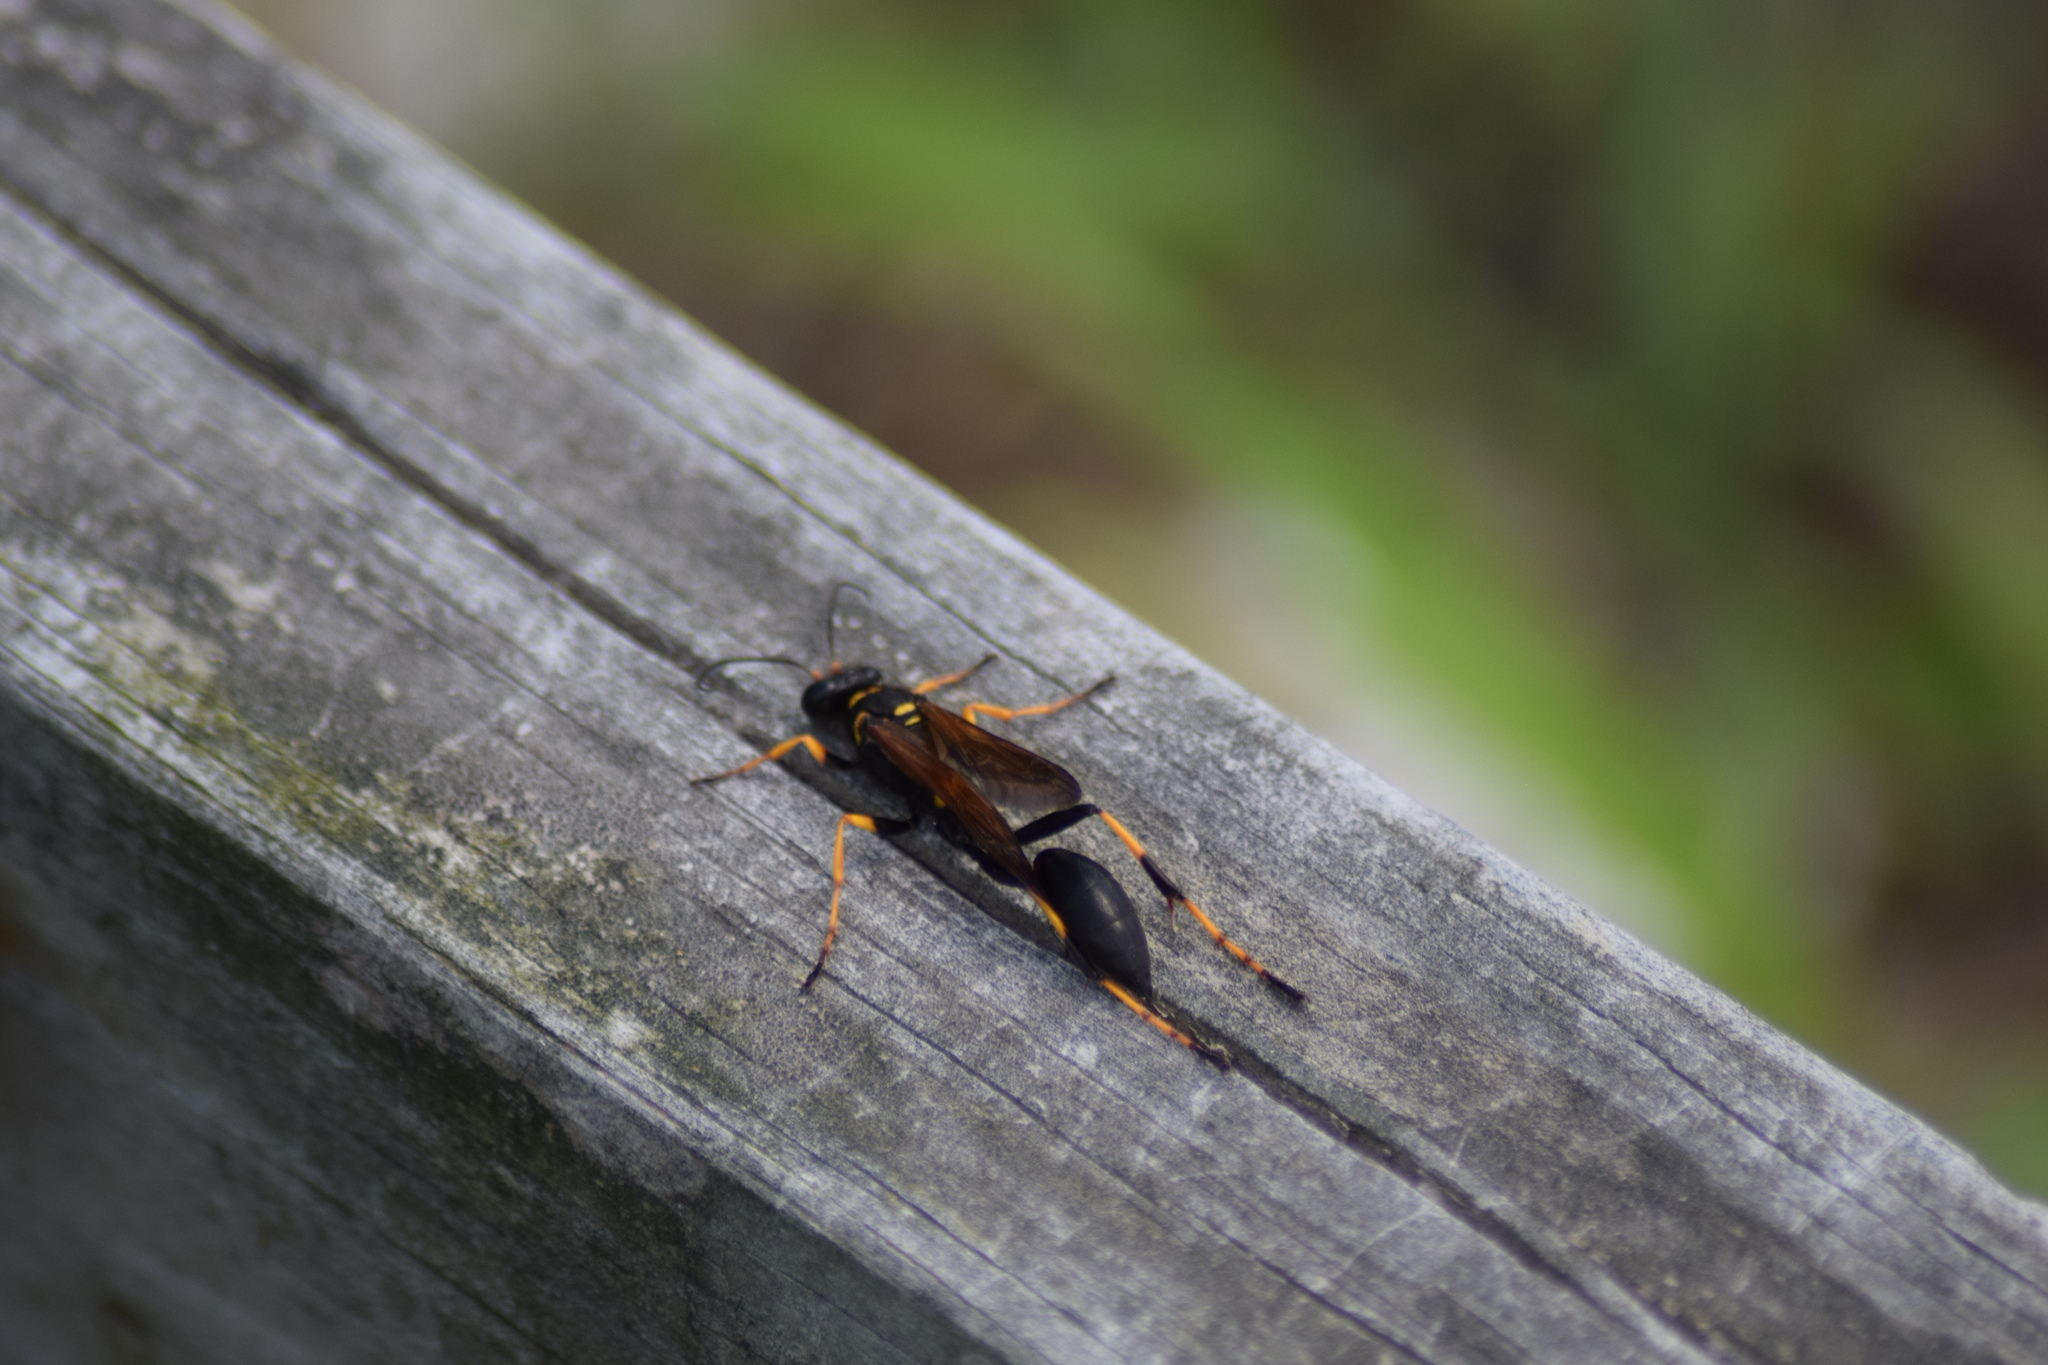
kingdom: Animalia
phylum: Arthropoda
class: Insecta
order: Hymenoptera
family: Sphecidae
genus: Sceliphron
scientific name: Sceliphron caementarium
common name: Mud dauber
